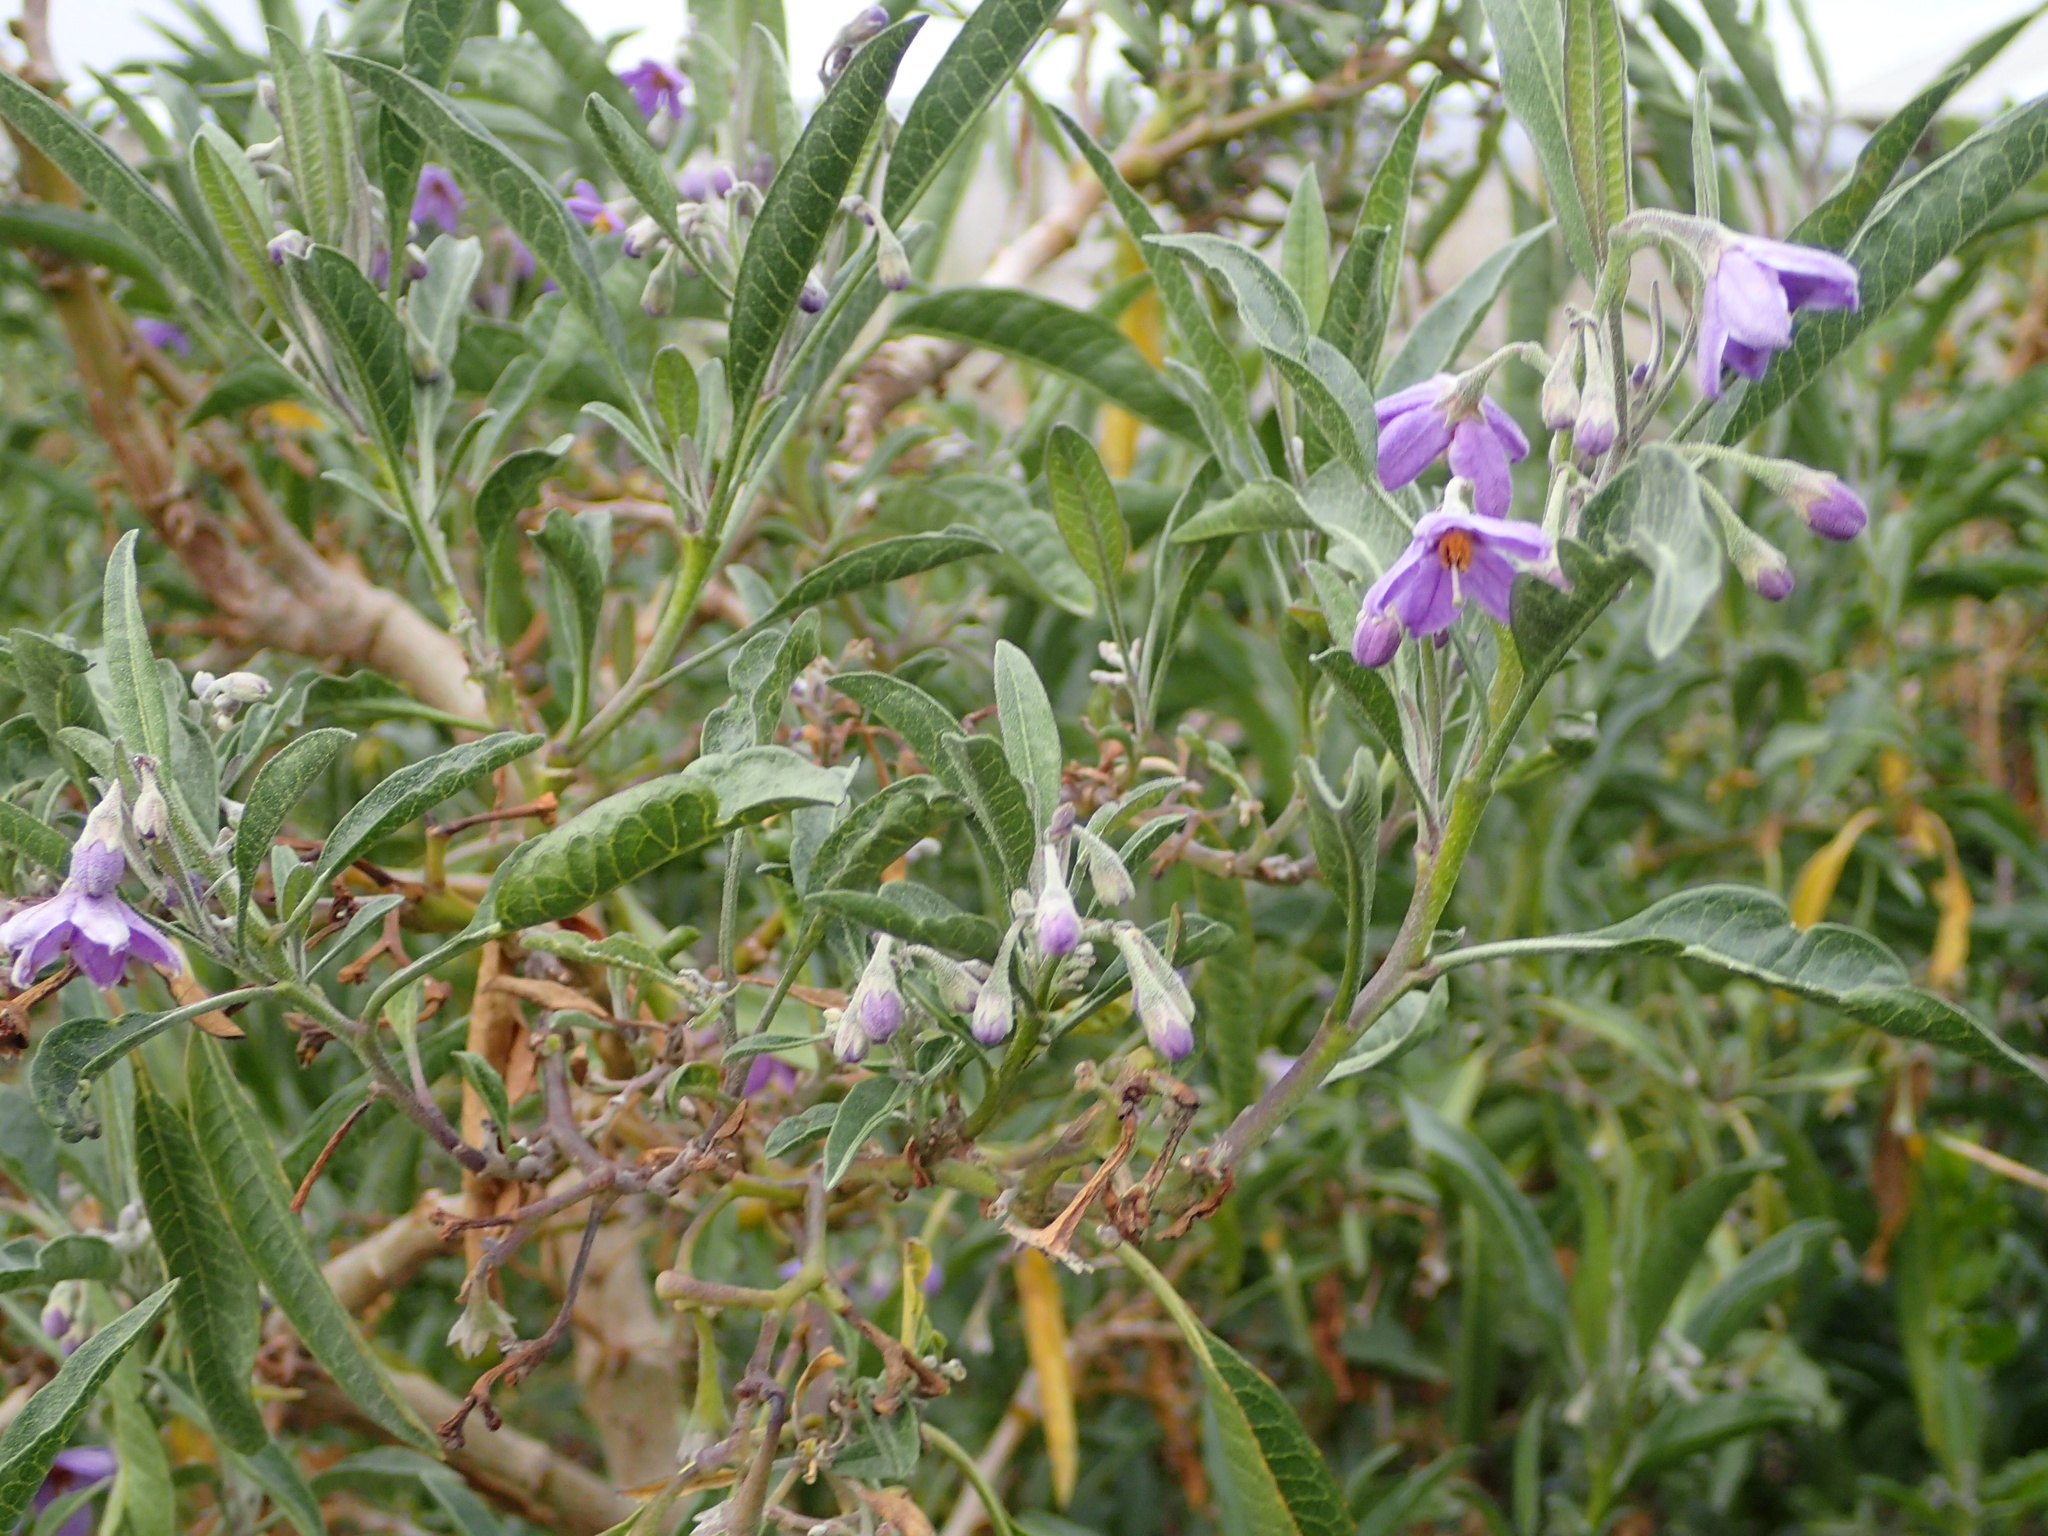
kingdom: Plantae
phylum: Tracheophyta
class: Magnoliopsida
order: Solanales
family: Solanaceae
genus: Solanum
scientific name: Solanum nitidum
